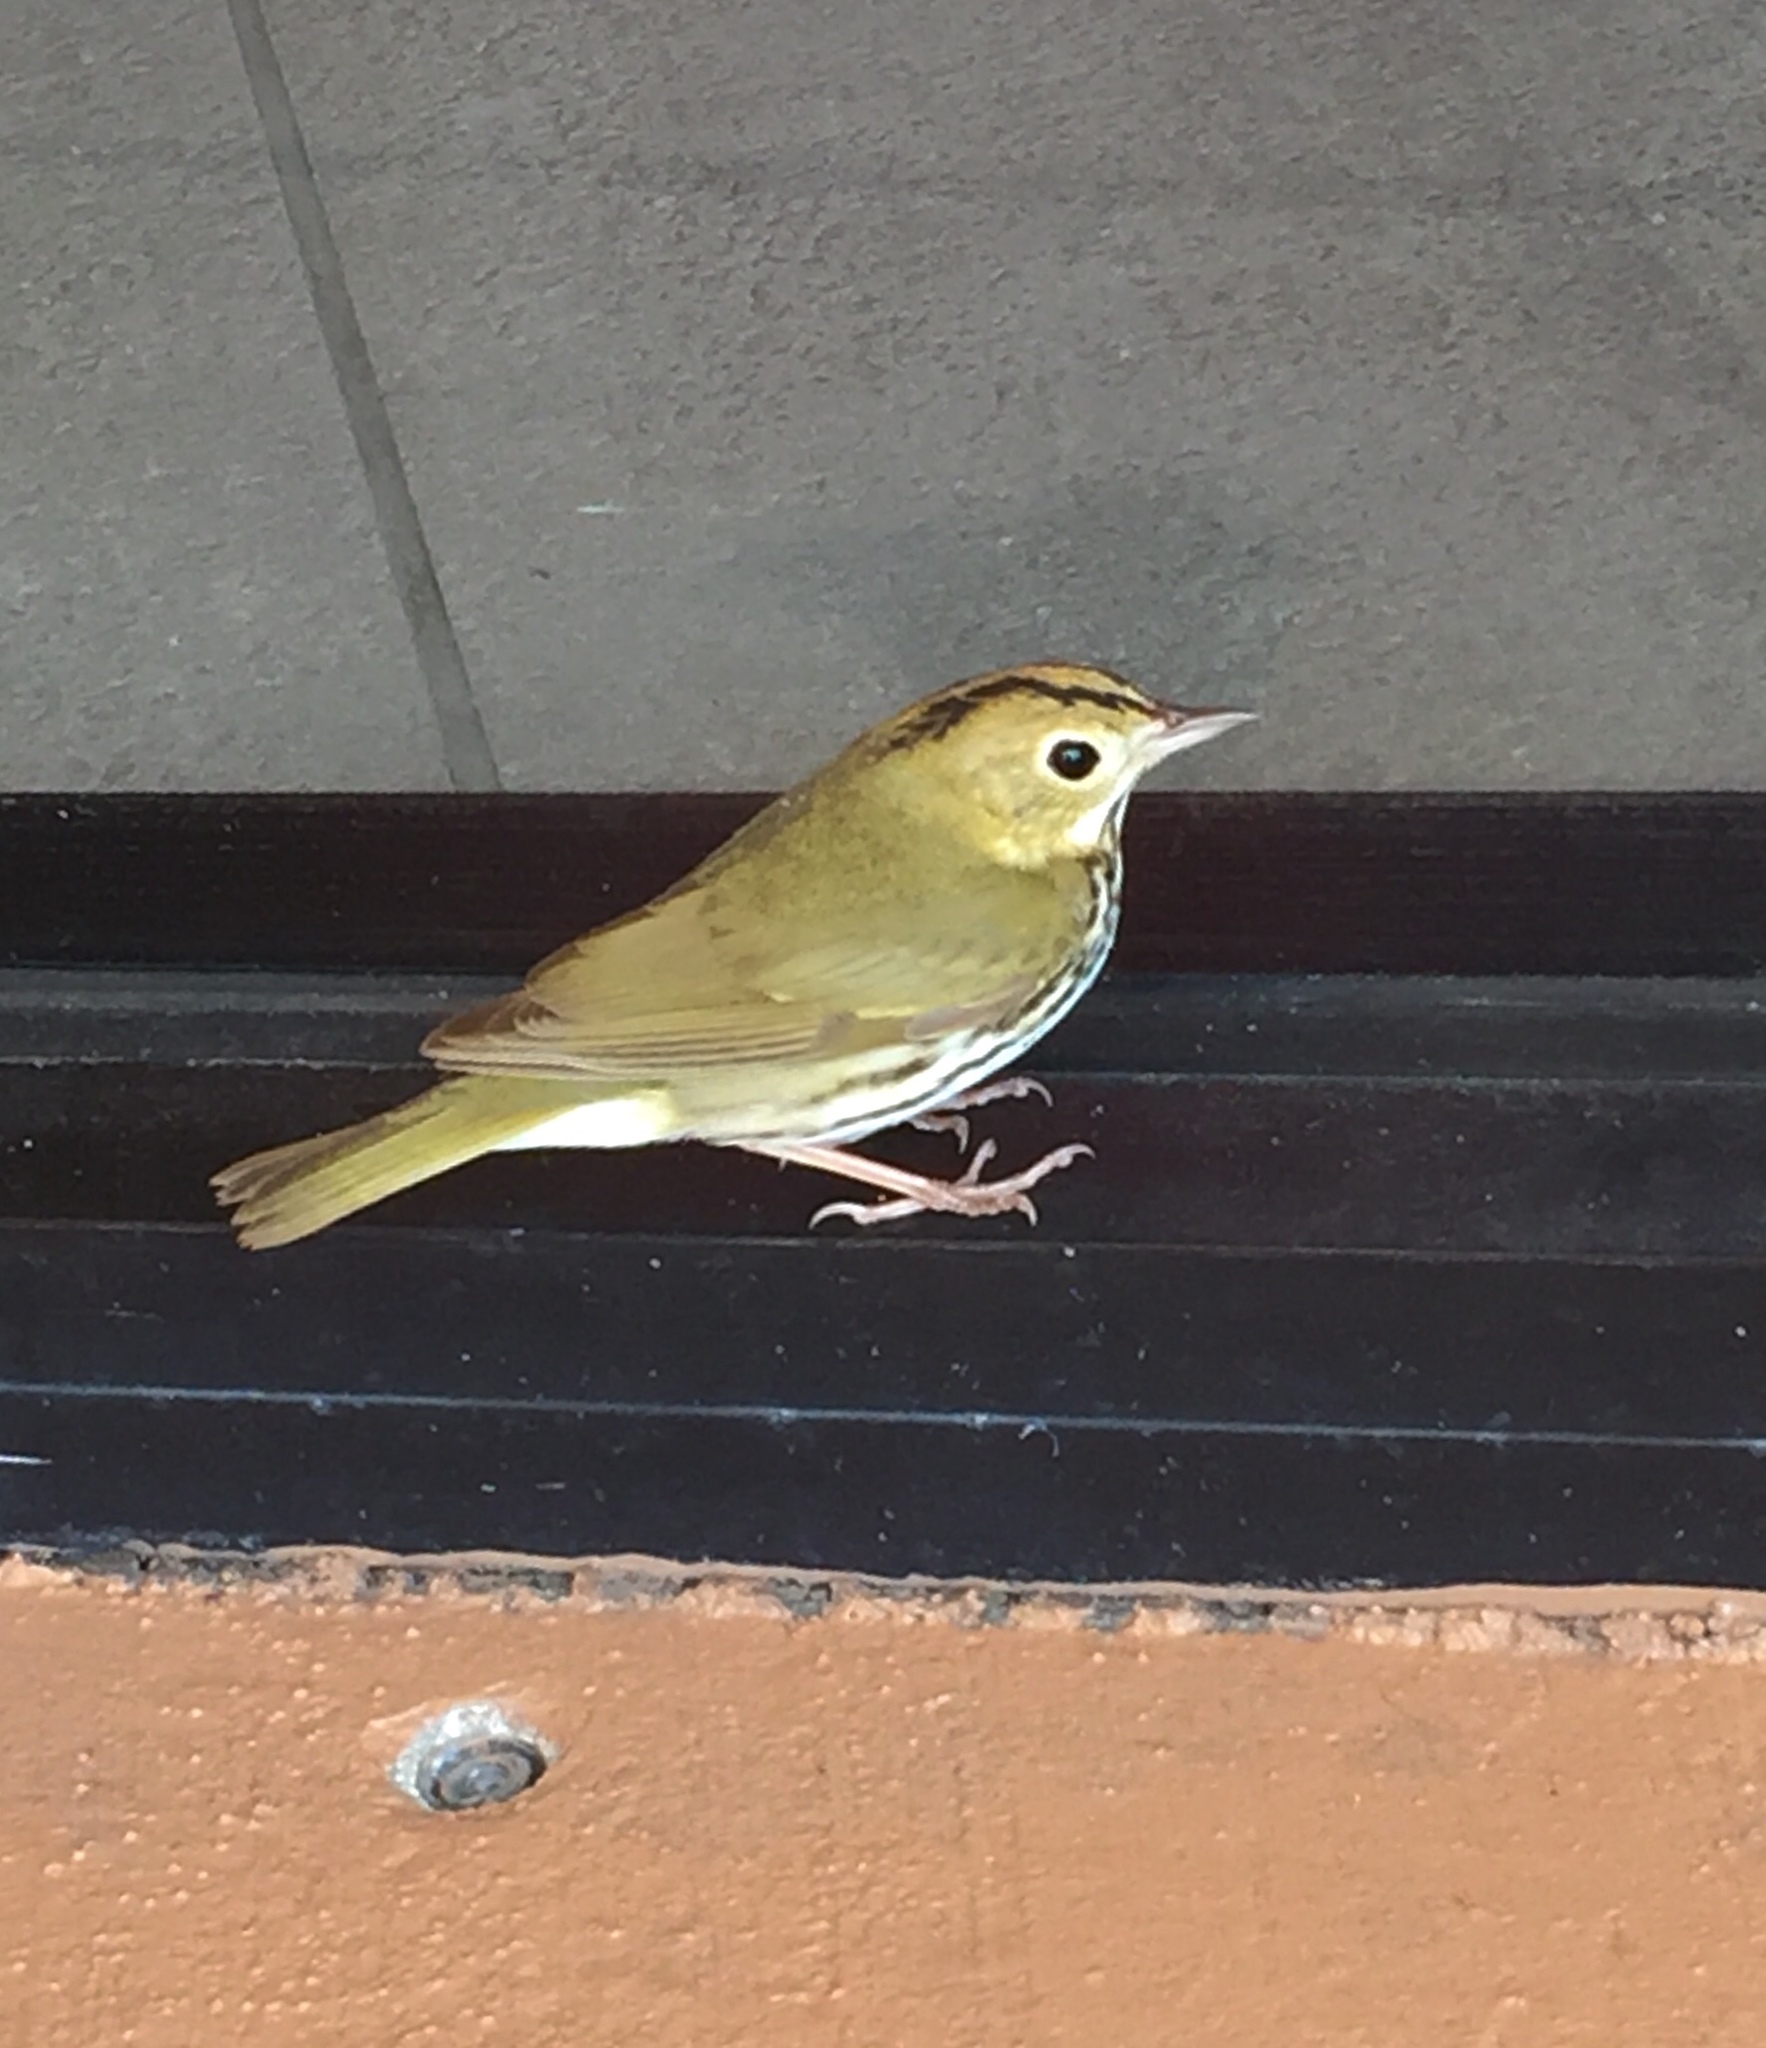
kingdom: Animalia
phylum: Chordata
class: Aves
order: Passeriformes
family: Parulidae
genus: Seiurus
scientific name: Seiurus aurocapilla
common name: Ovenbird
